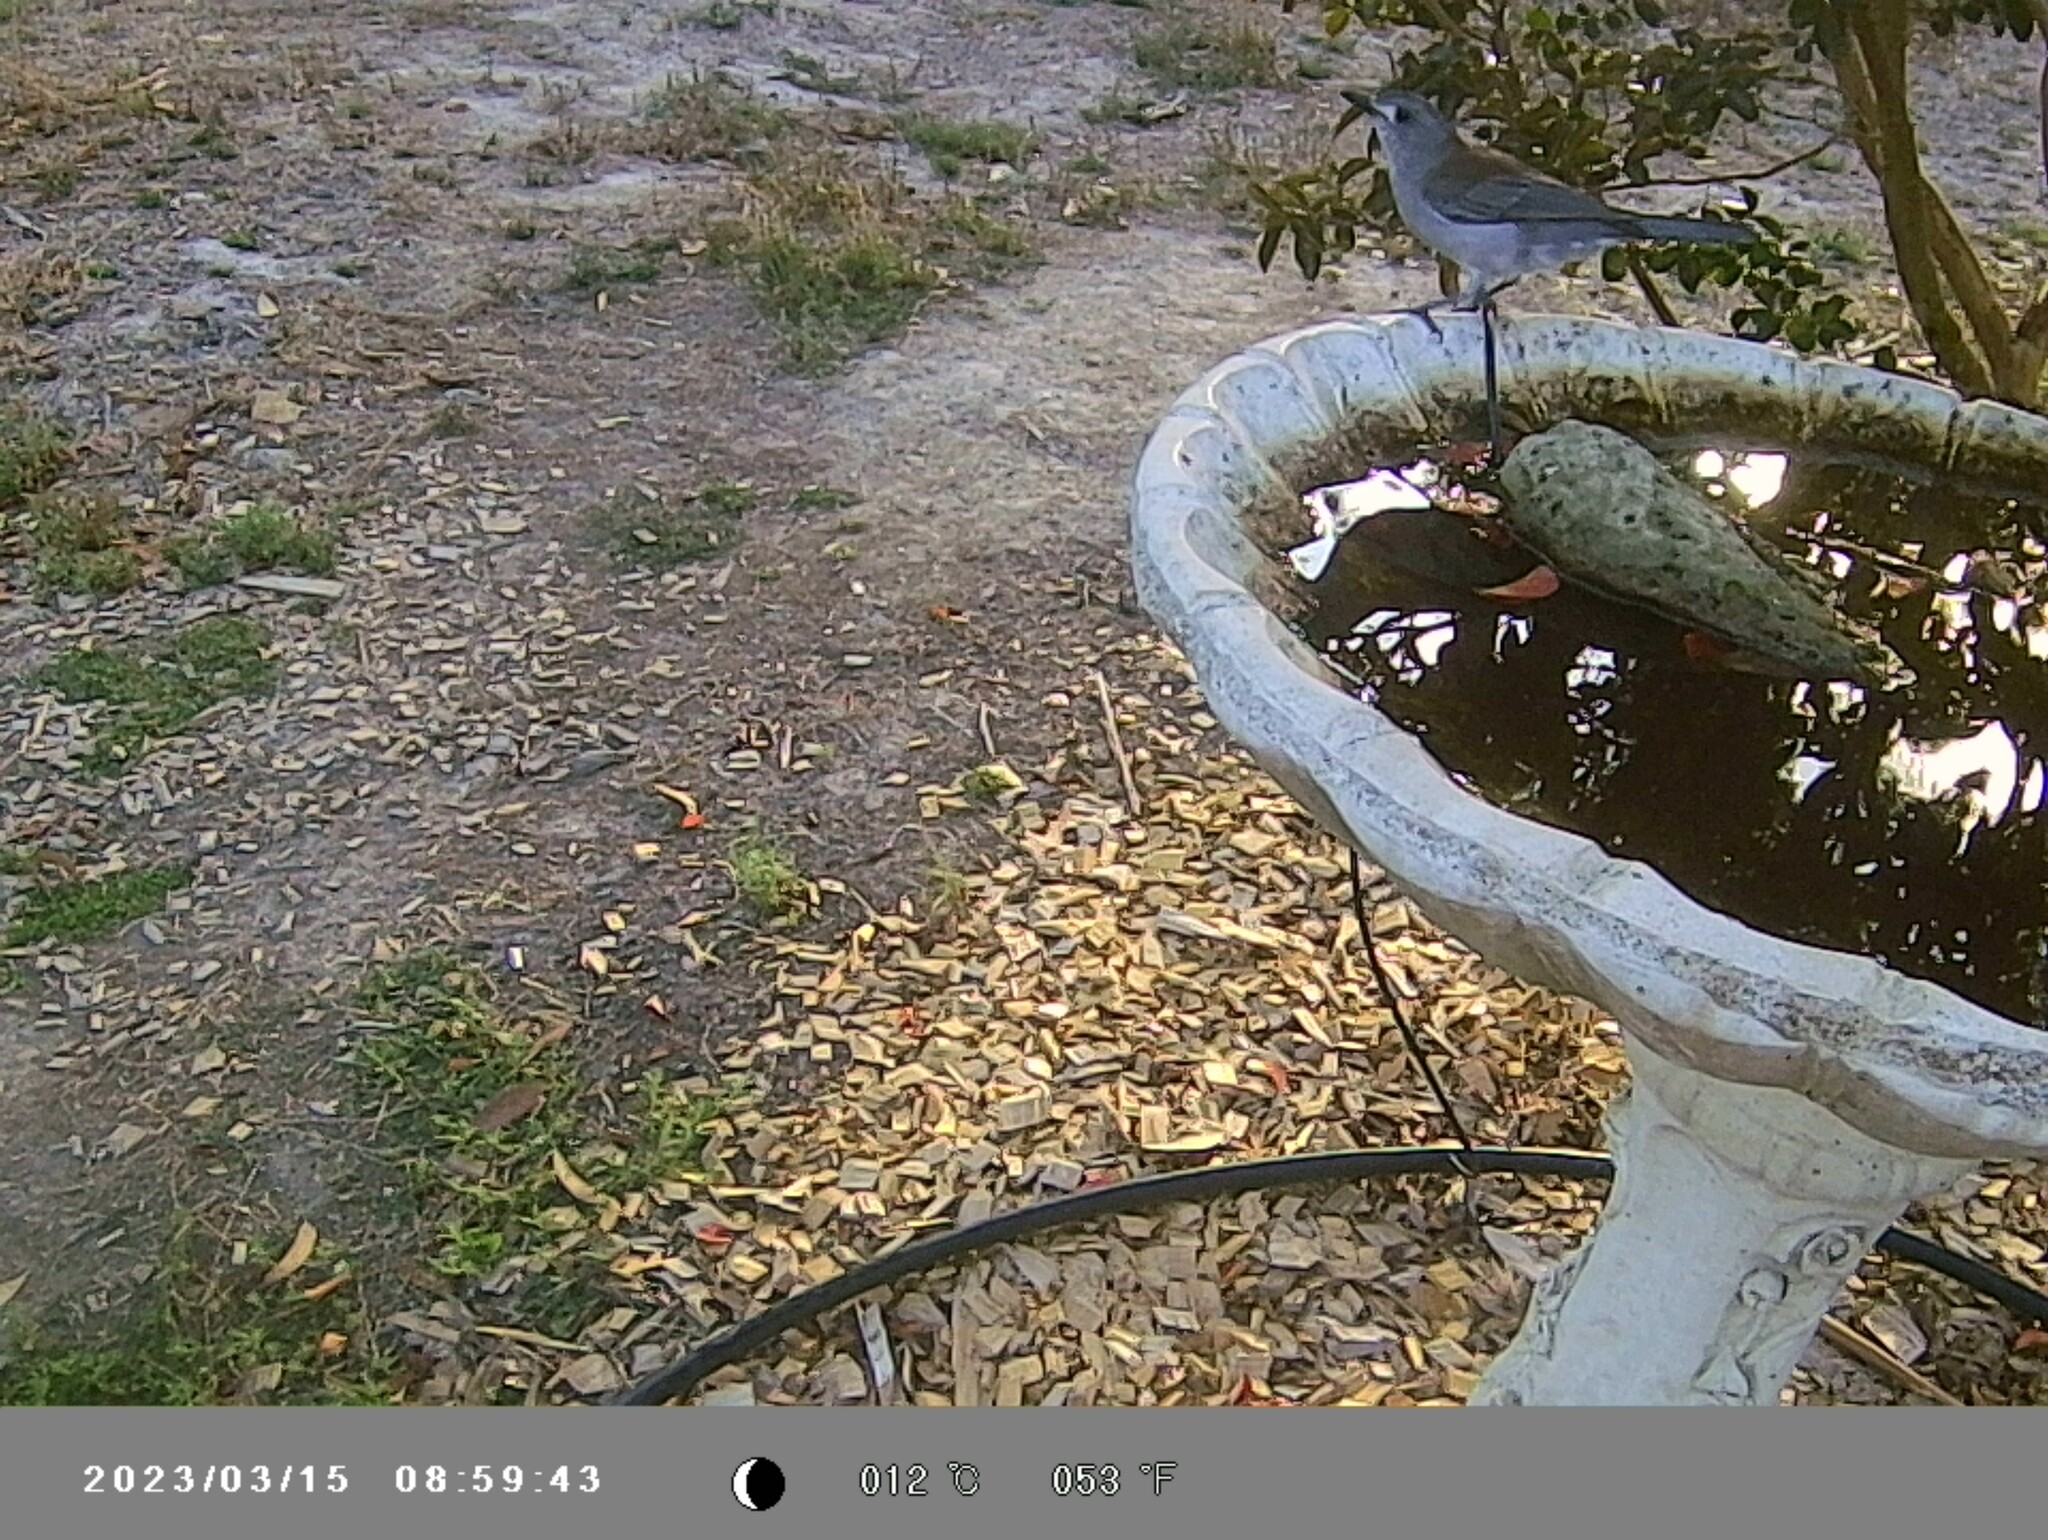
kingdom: Animalia
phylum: Chordata
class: Aves
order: Passeriformes
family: Pachycephalidae
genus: Colluricincla
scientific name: Colluricincla harmonica
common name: Grey shrikethrush
